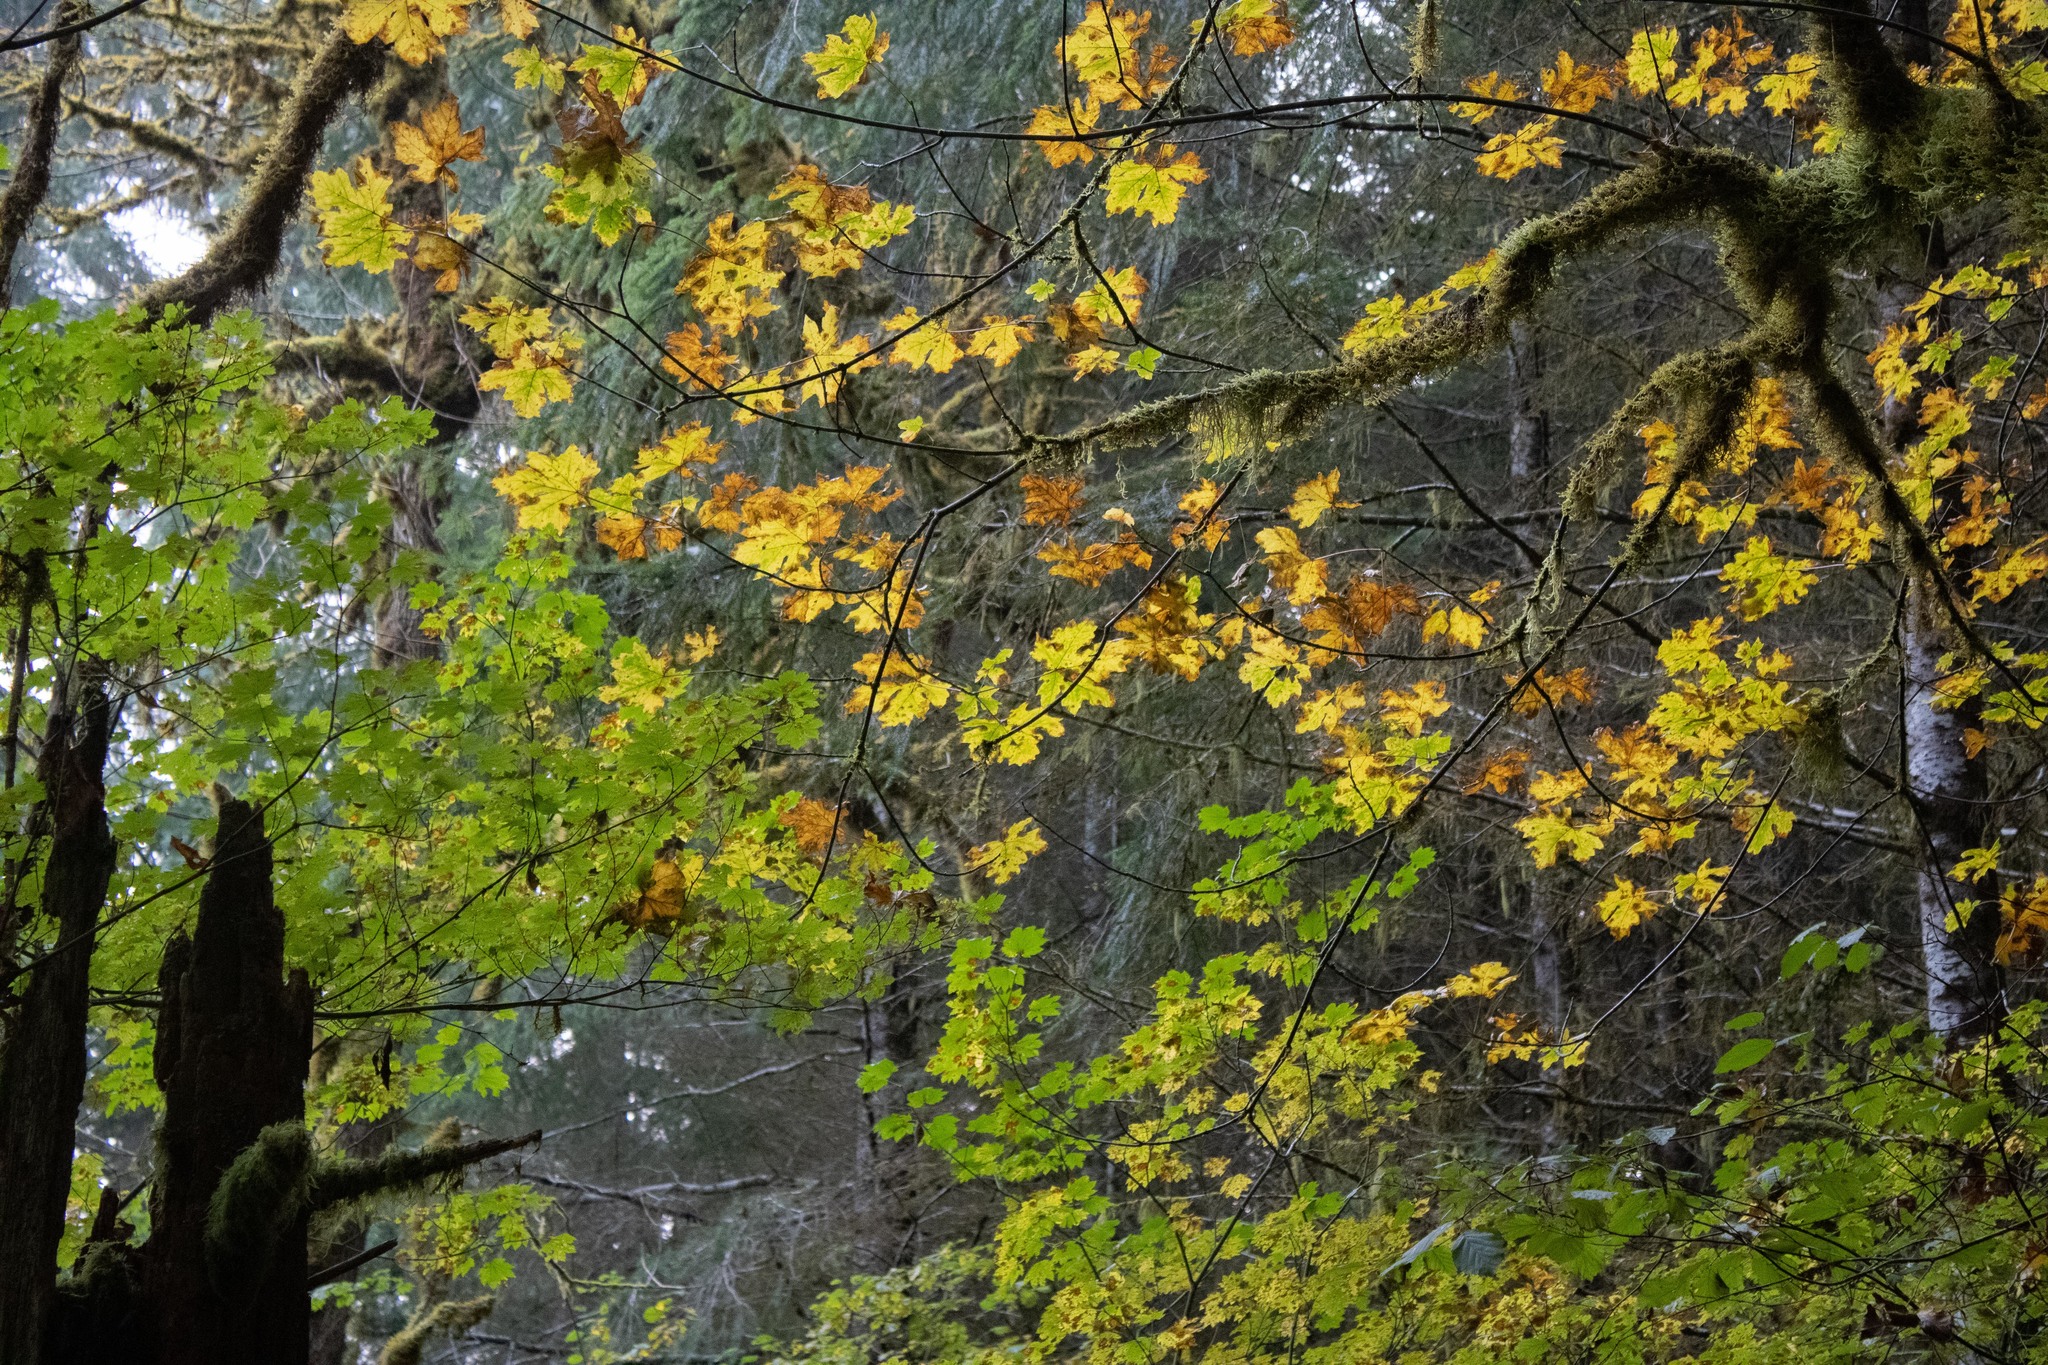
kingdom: Plantae
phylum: Tracheophyta
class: Magnoliopsida
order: Sapindales
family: Sapindaceae
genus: Acer
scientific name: Acer macrophyllum
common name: Oregon maple
